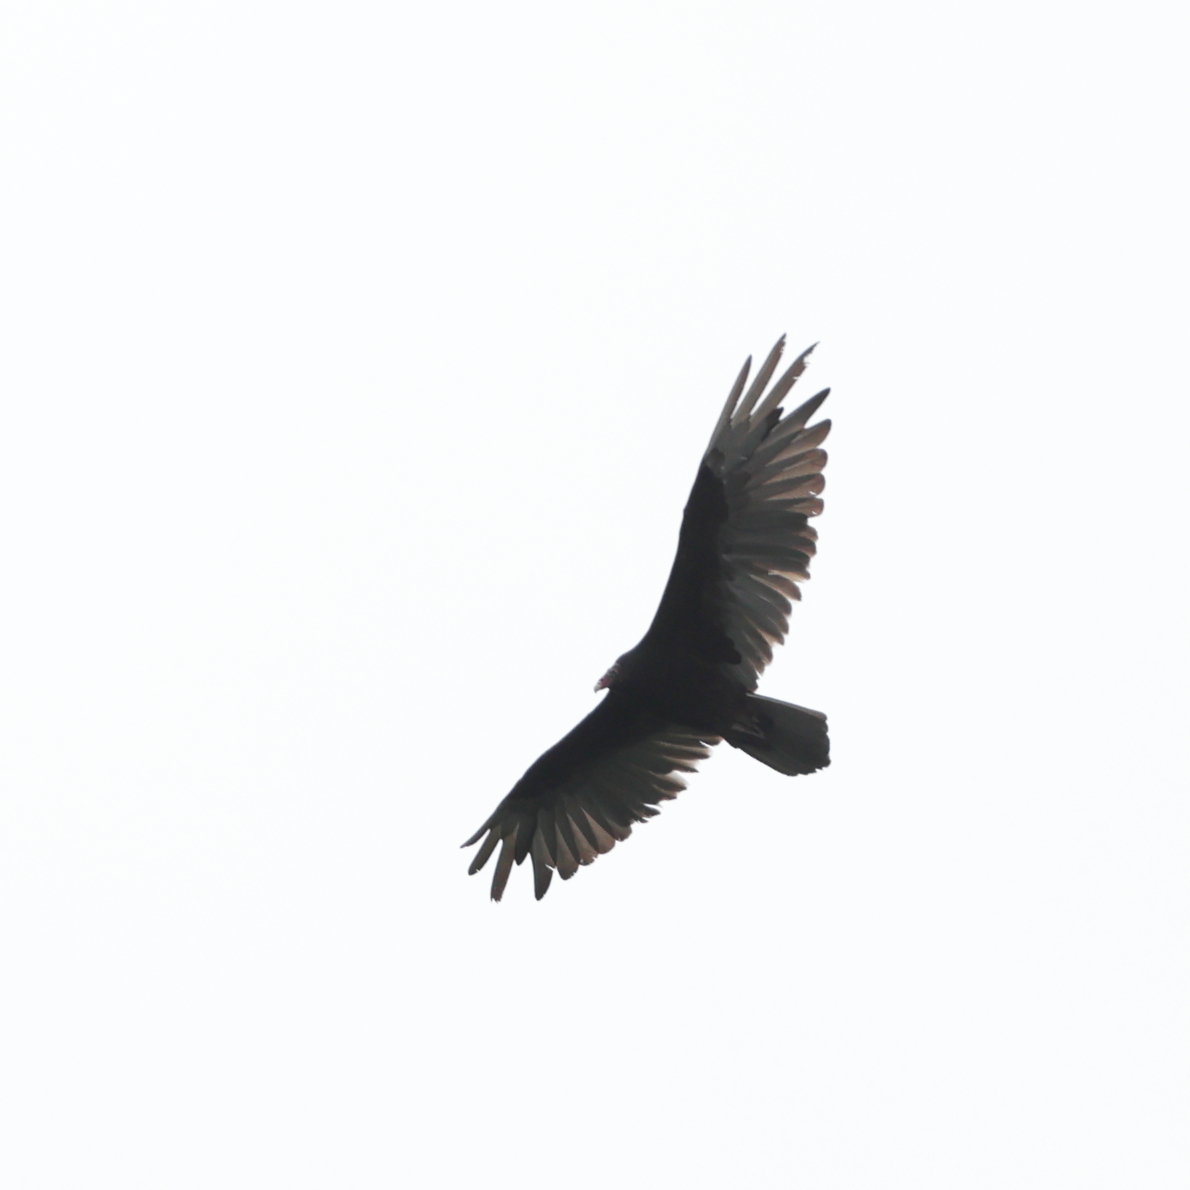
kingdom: Animalia
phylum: Chordata
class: Aves
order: Accipitriformes
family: Cathartidae
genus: Cathartes
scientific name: Cathartes aura
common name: Turkey vulture
